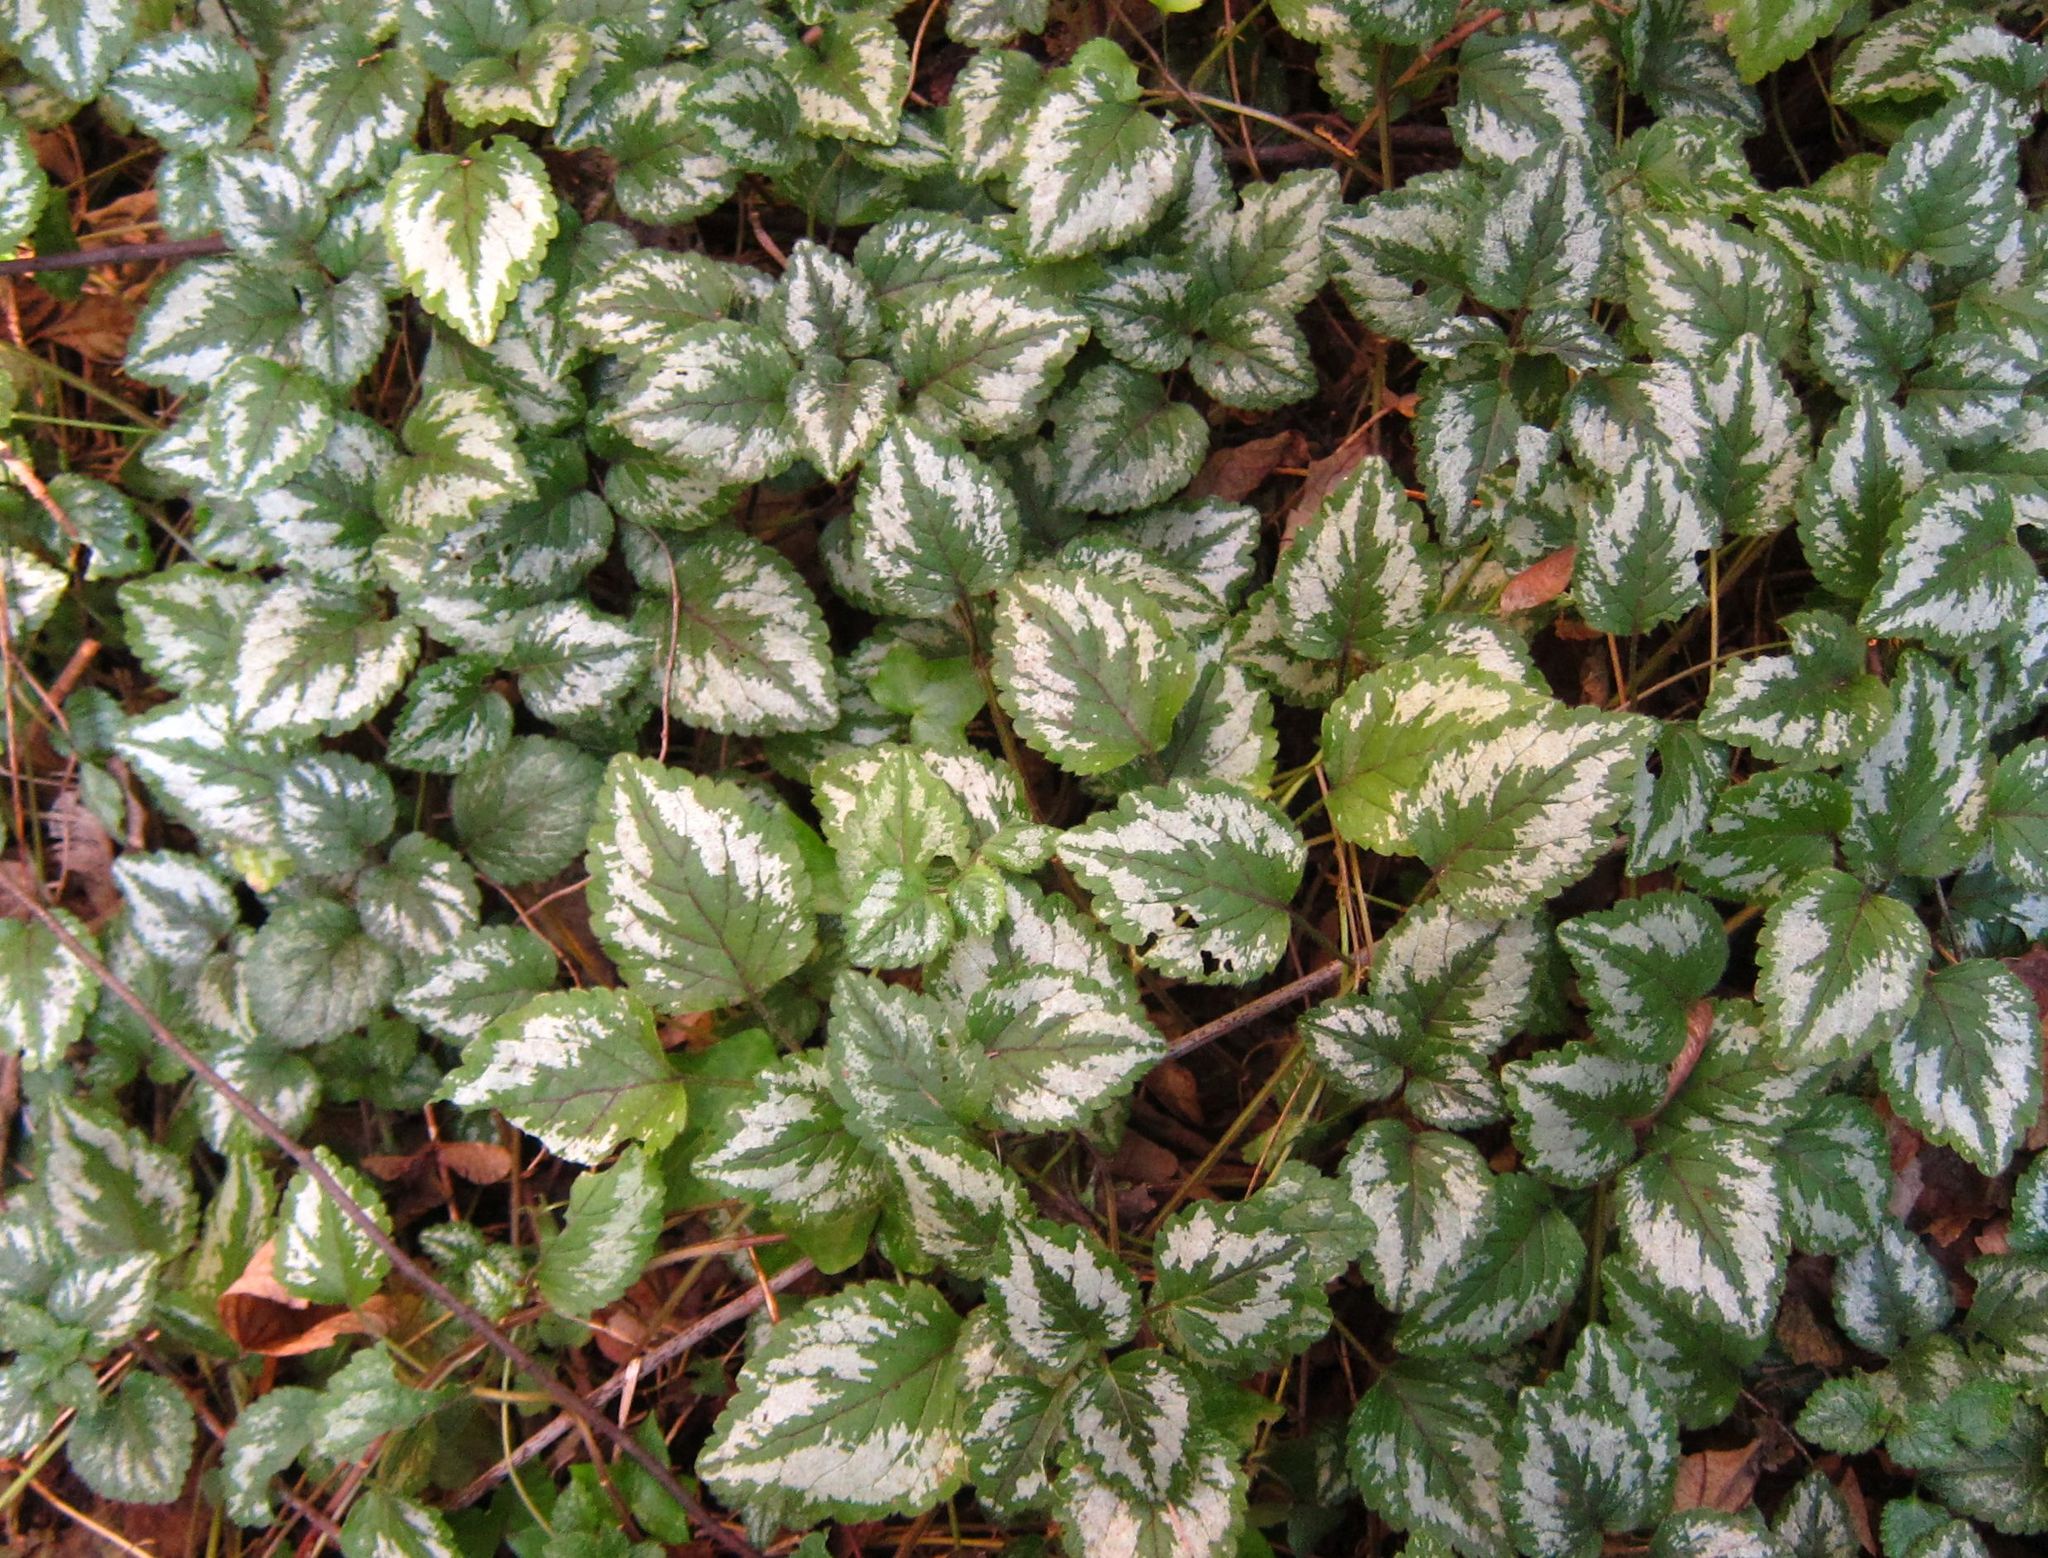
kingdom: Plantae
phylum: Tracheophyta
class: Magnoliopsida
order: Lamiales
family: Lamiaceae
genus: Lamium
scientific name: Lamium galeobdolon
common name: Yellow archangel
